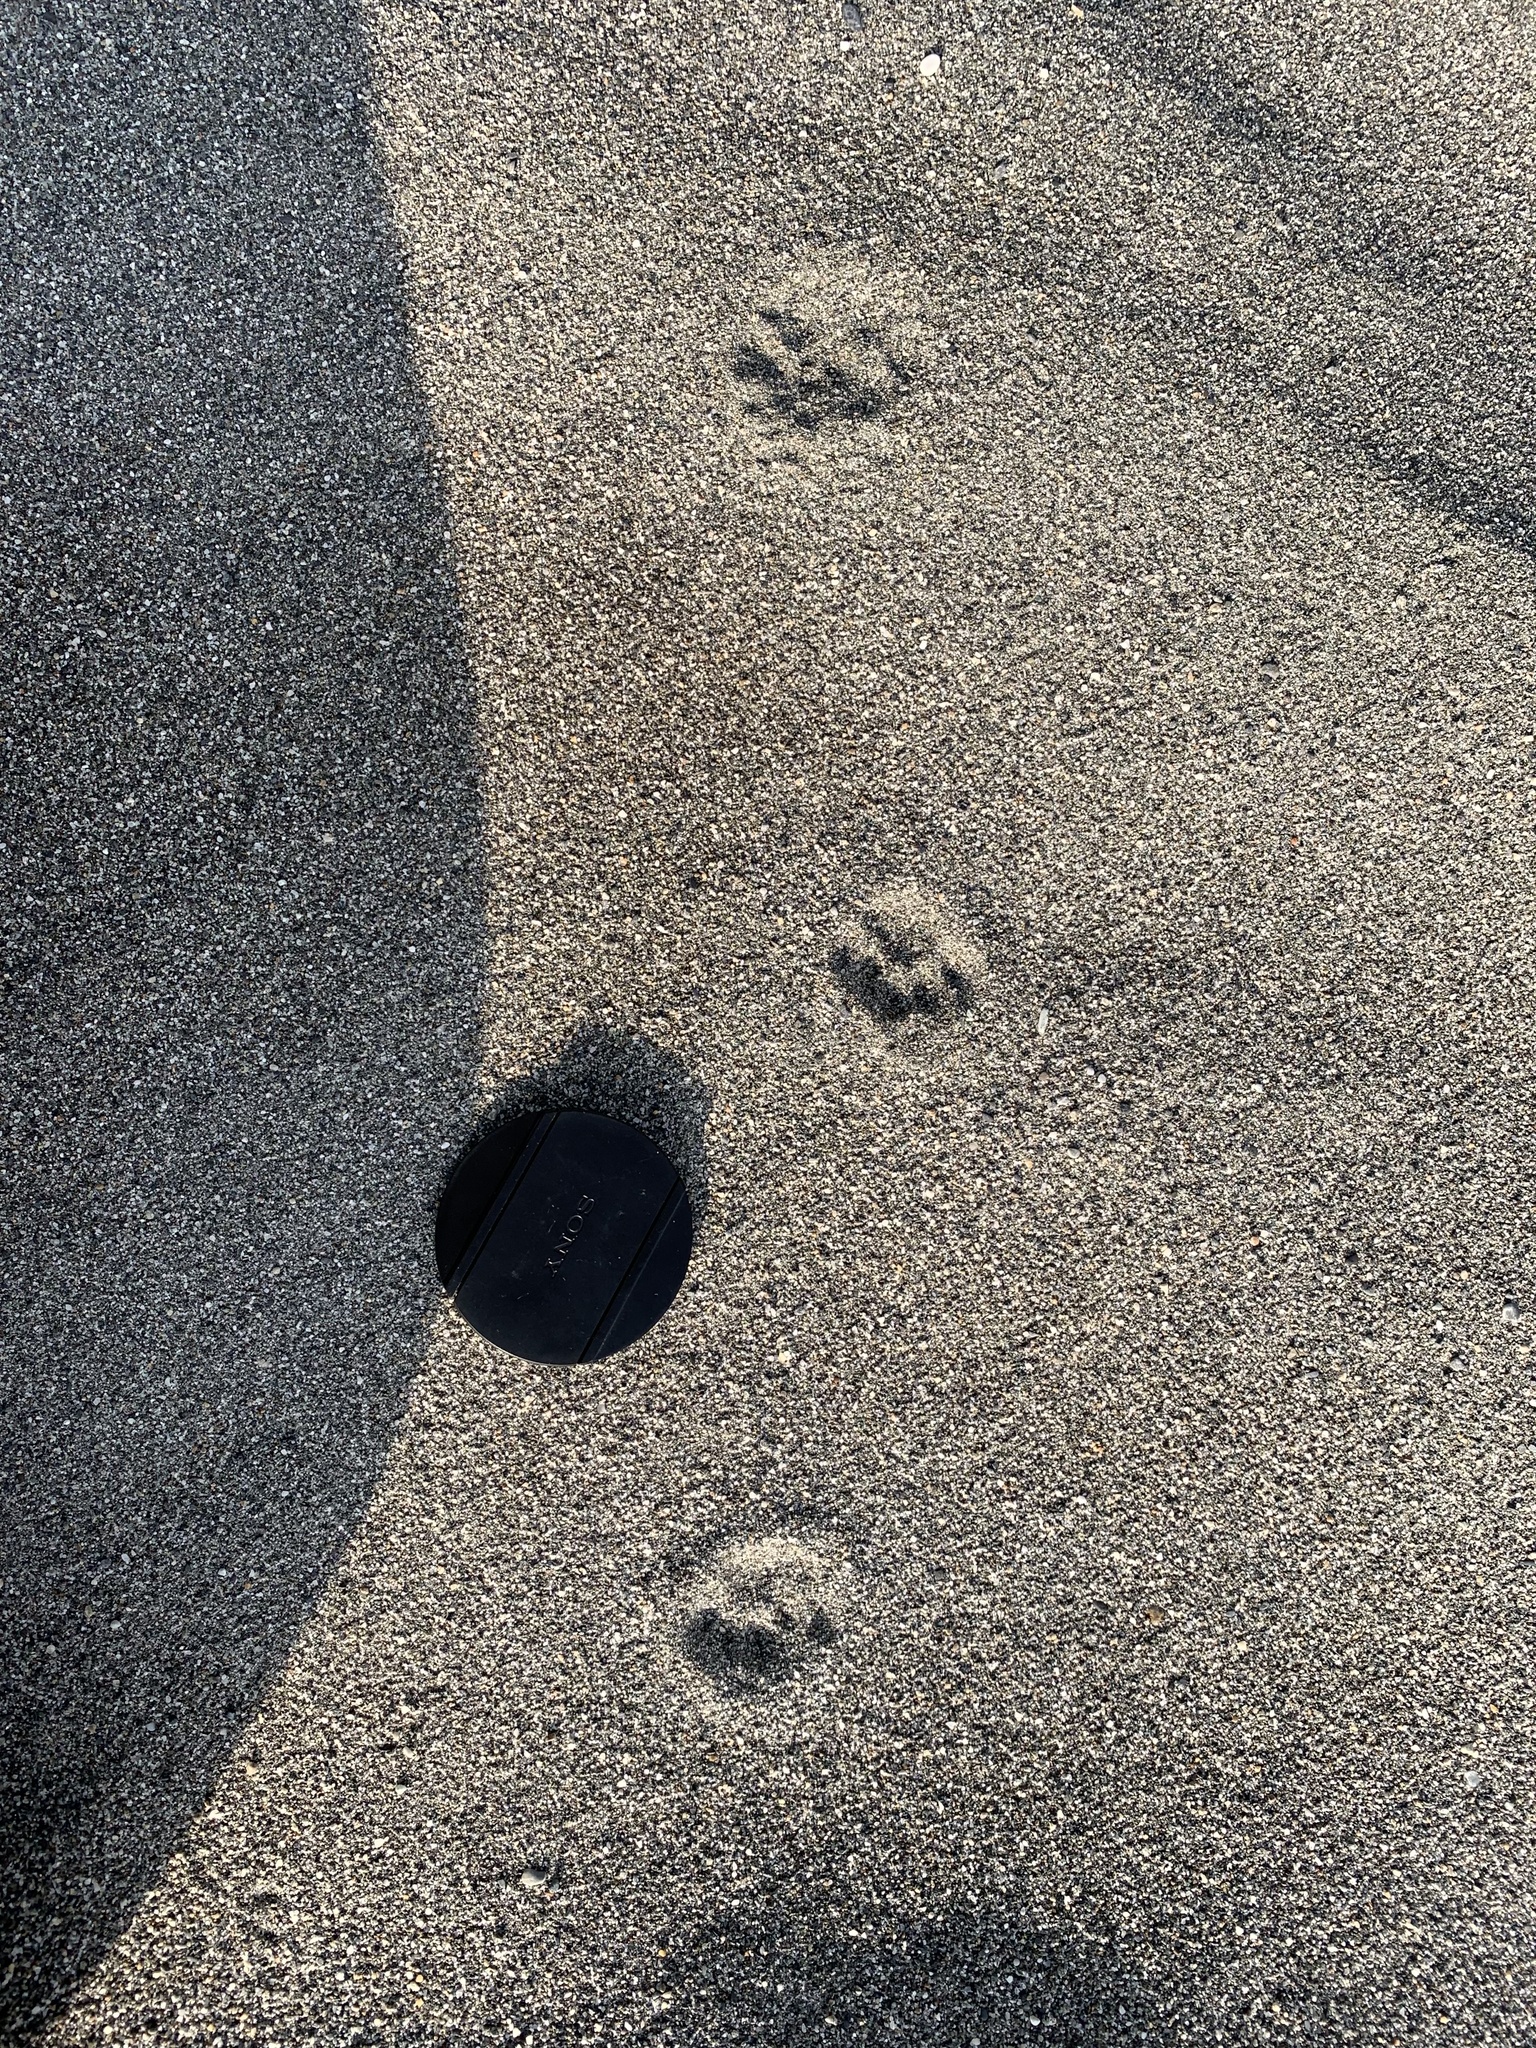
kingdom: Animalia
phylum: Chordata
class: Mammalia
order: Carnivora
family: Felidae
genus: Felis
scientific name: Felis catus
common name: Domestic cat
